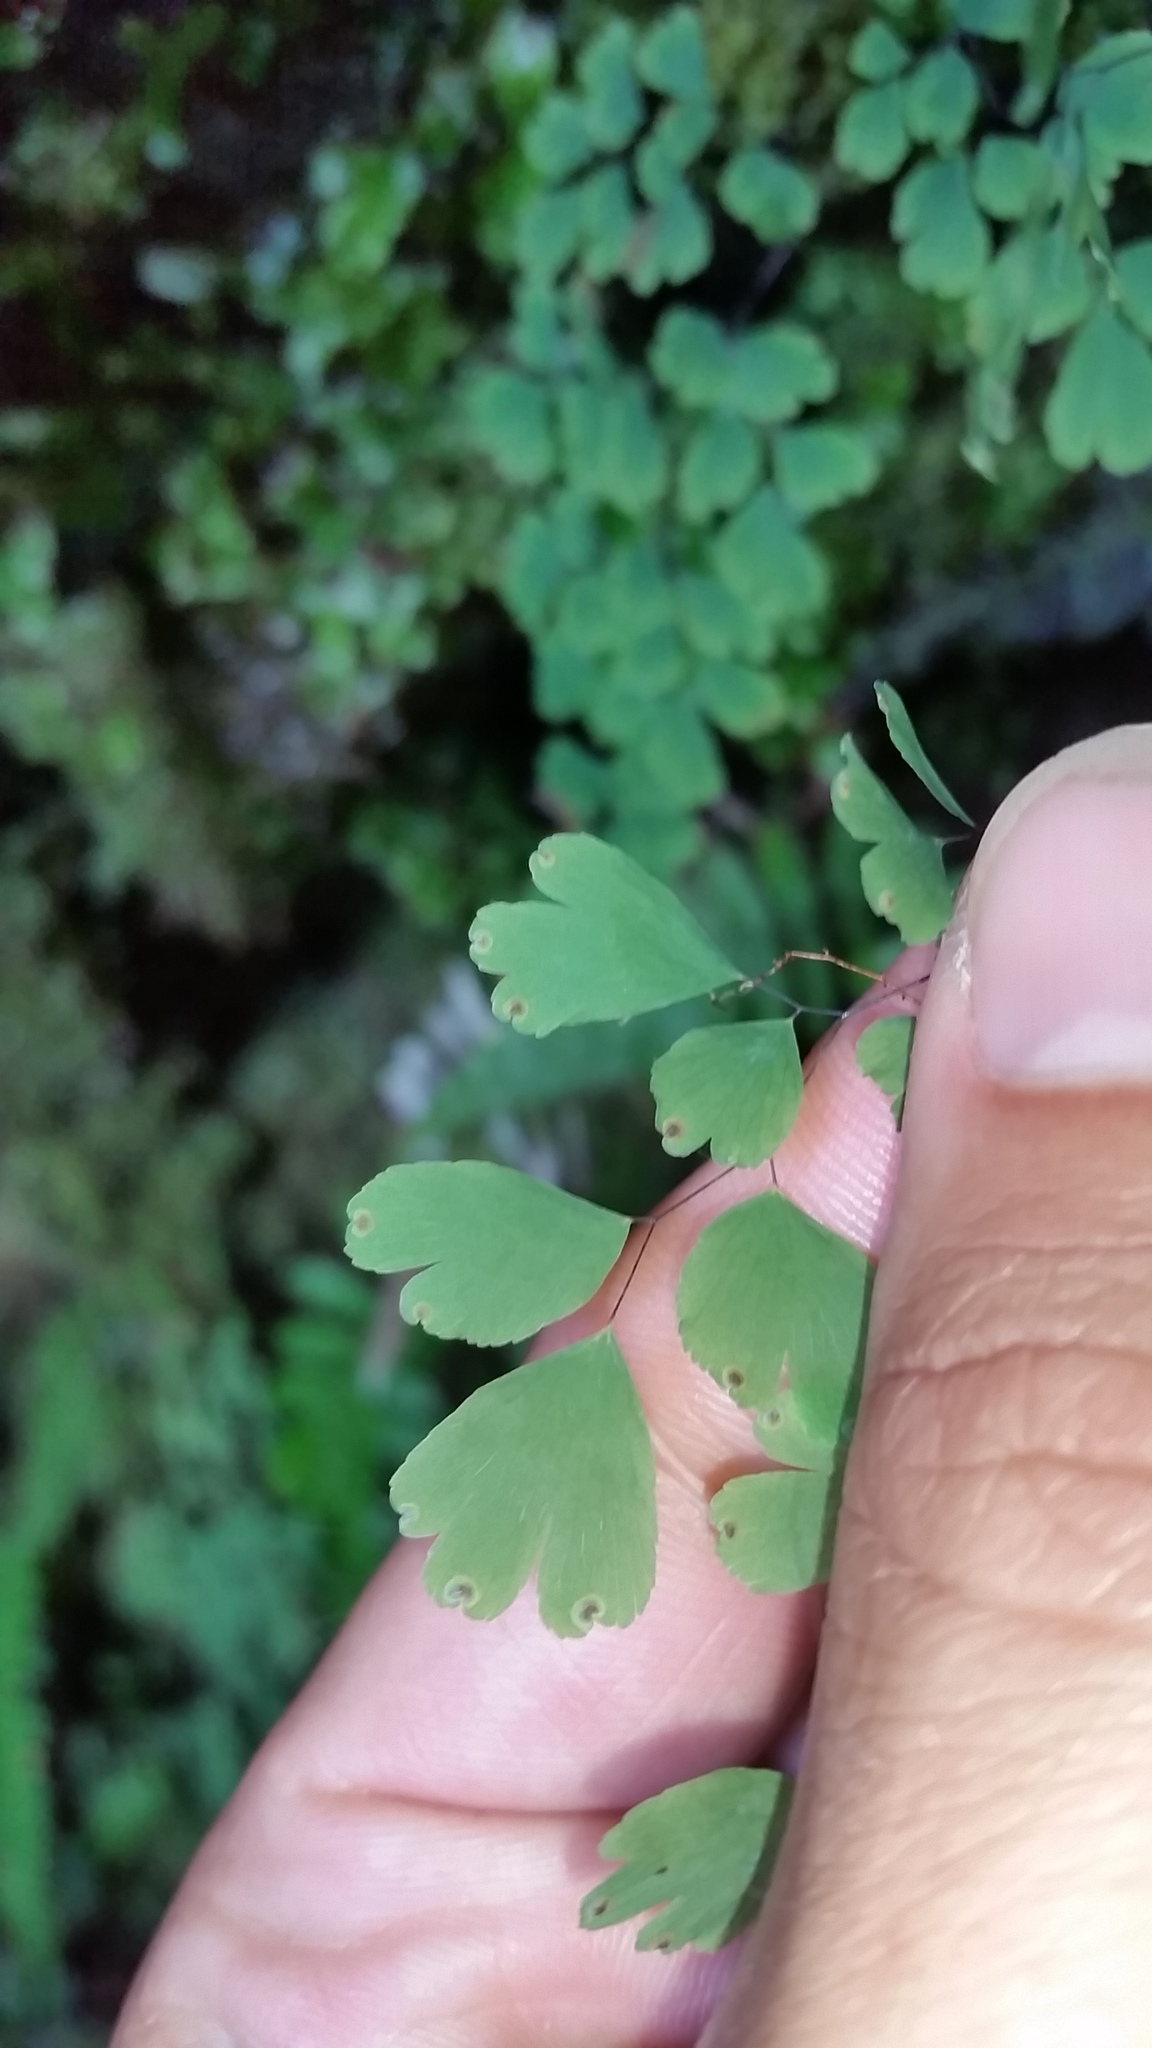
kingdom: Plantae
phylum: Tracheophyta
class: Polypodiopsida
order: Polypodiales
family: Pteridaceae
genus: Adiantum
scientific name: Adiantum raddianum
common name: Delta maidenhair fern
